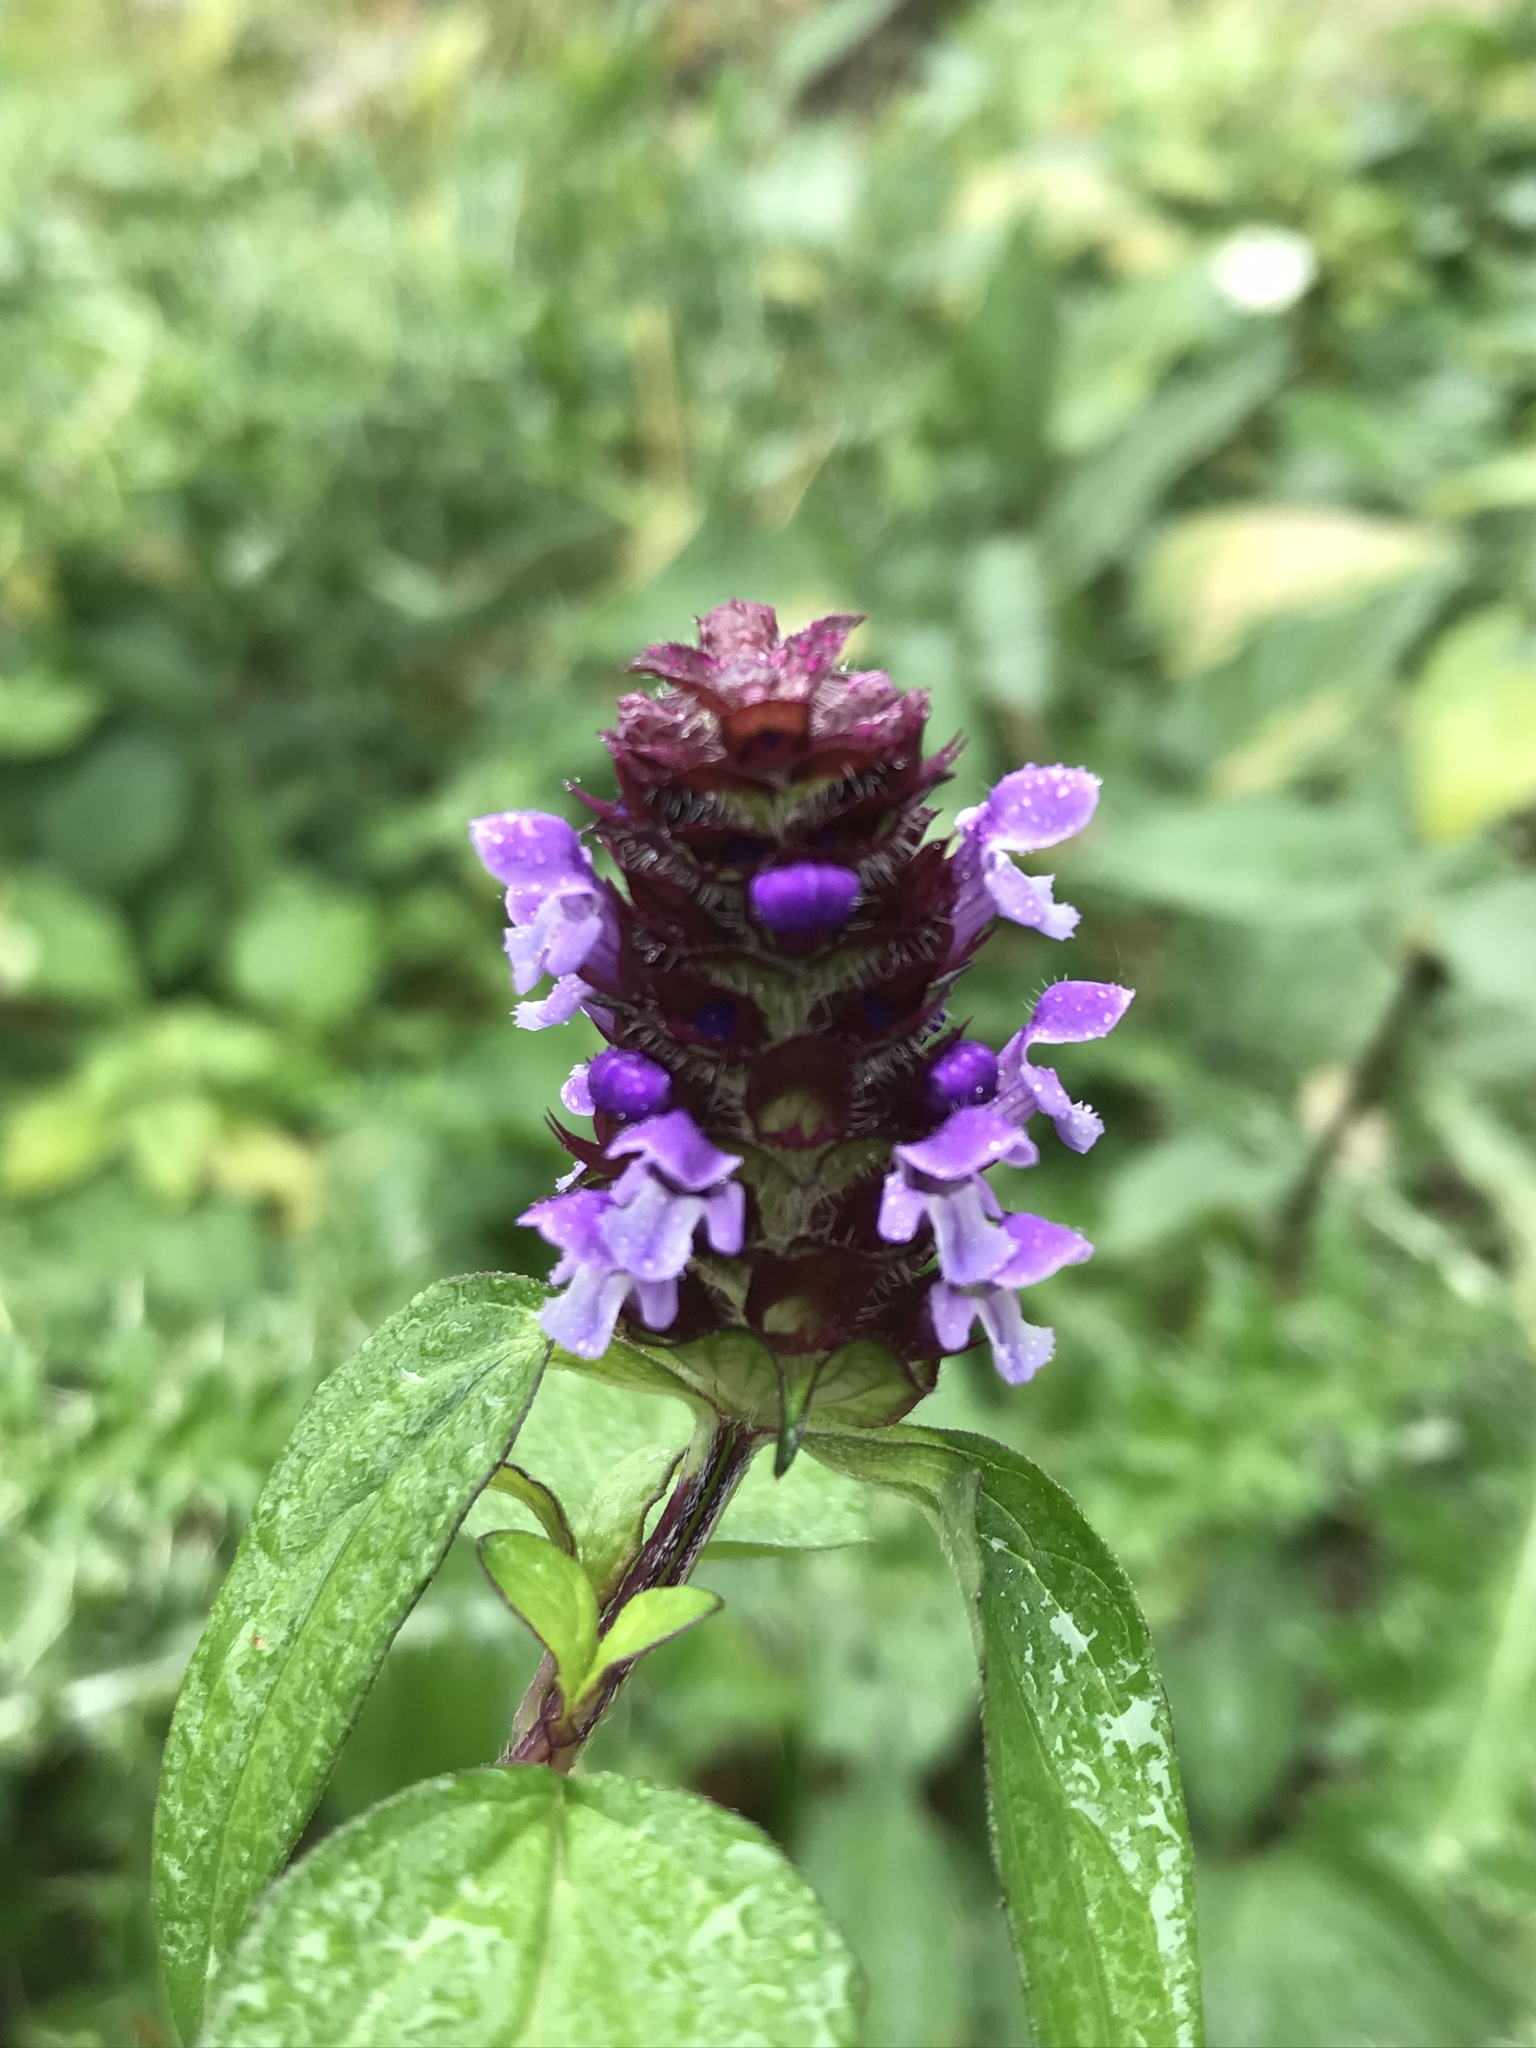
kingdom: Plantae
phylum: Tracheophyta
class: Magnoliopsida
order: Lamiales
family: Lamiaceae
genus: Prunella
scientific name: Prunella vulgaris
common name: Heal-all
